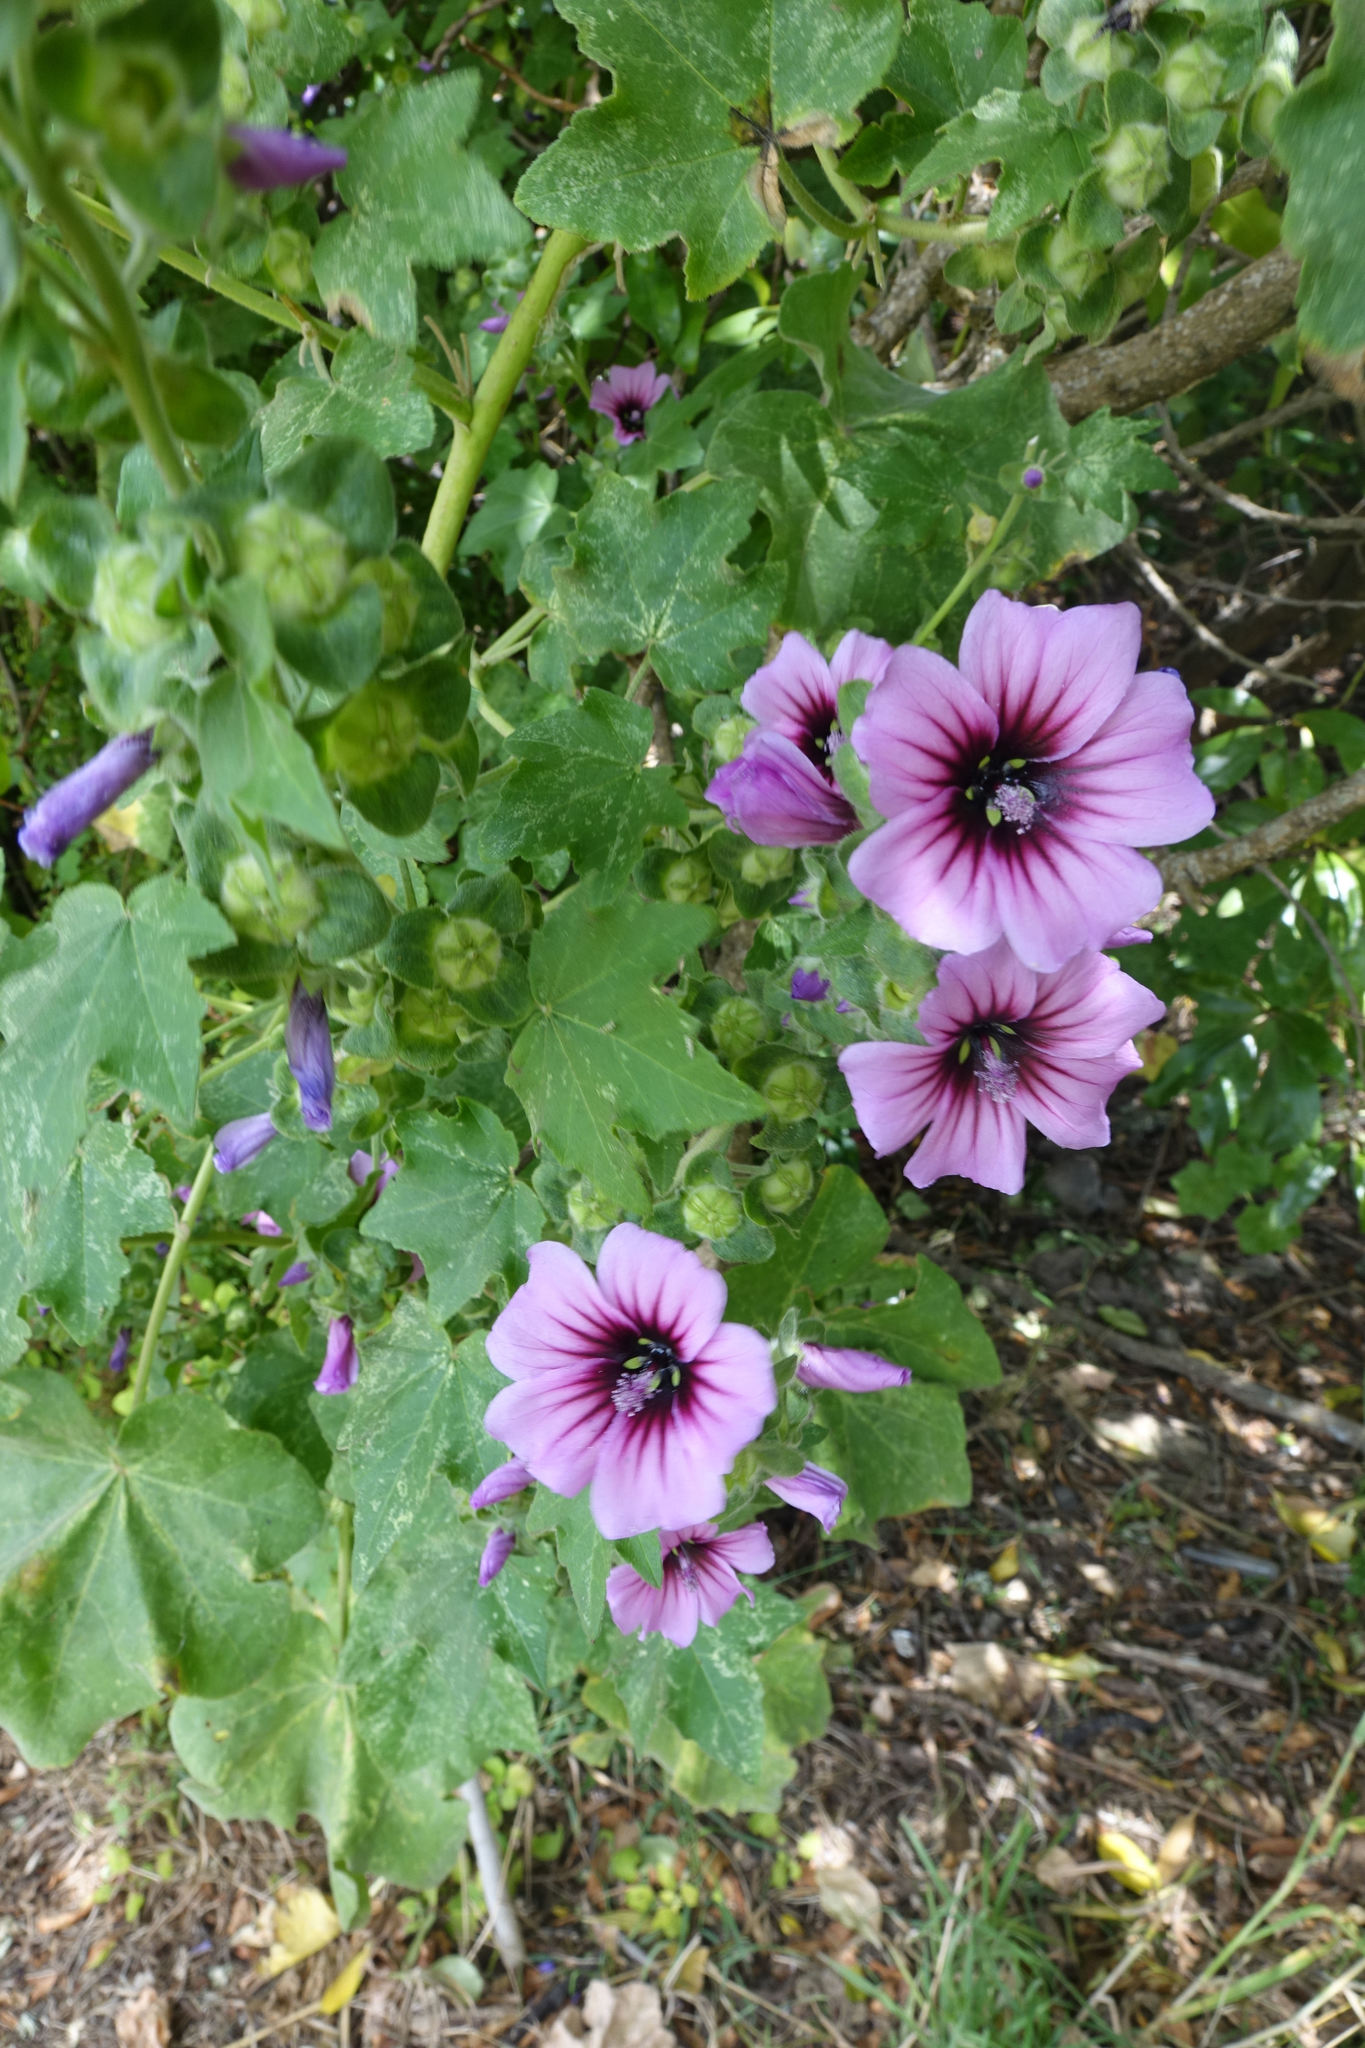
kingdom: Plantae
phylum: Tracheophyta
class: Magnoliopsida
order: Malvales
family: Malvaceae
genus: Malva
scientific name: Malva arborea
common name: Tree mallow
